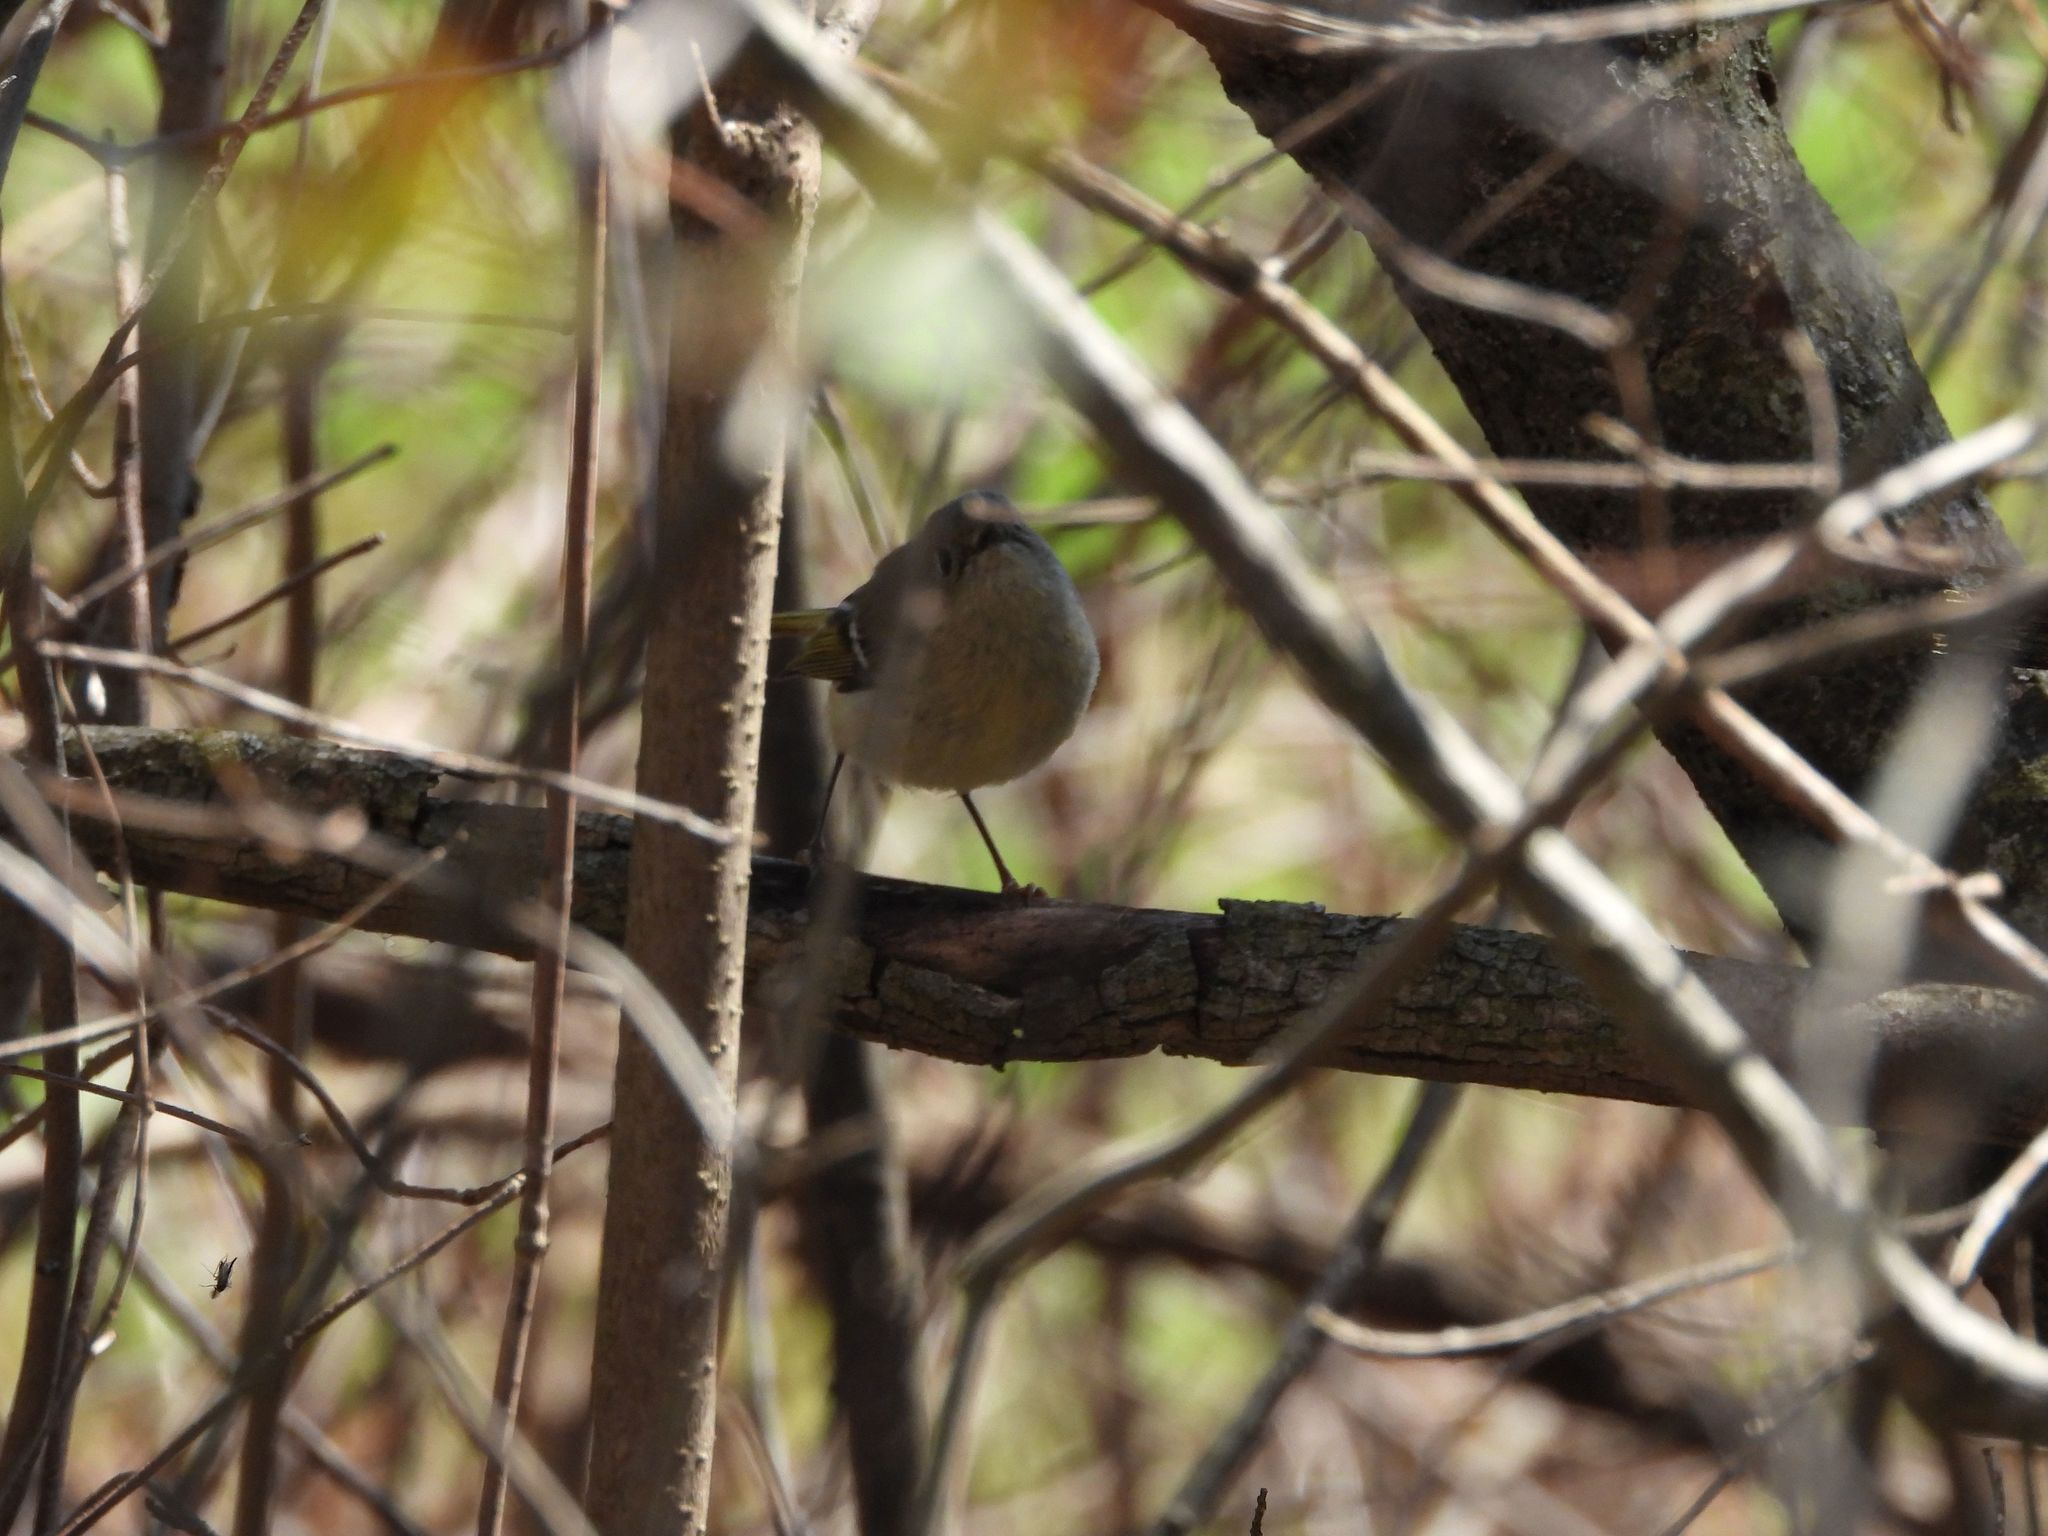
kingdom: Animalia
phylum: Chordata
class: Aves
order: Passeriformes
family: Regulidae
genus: Regulus
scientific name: Regulus calendula
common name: Ruby-crowned kinglet
